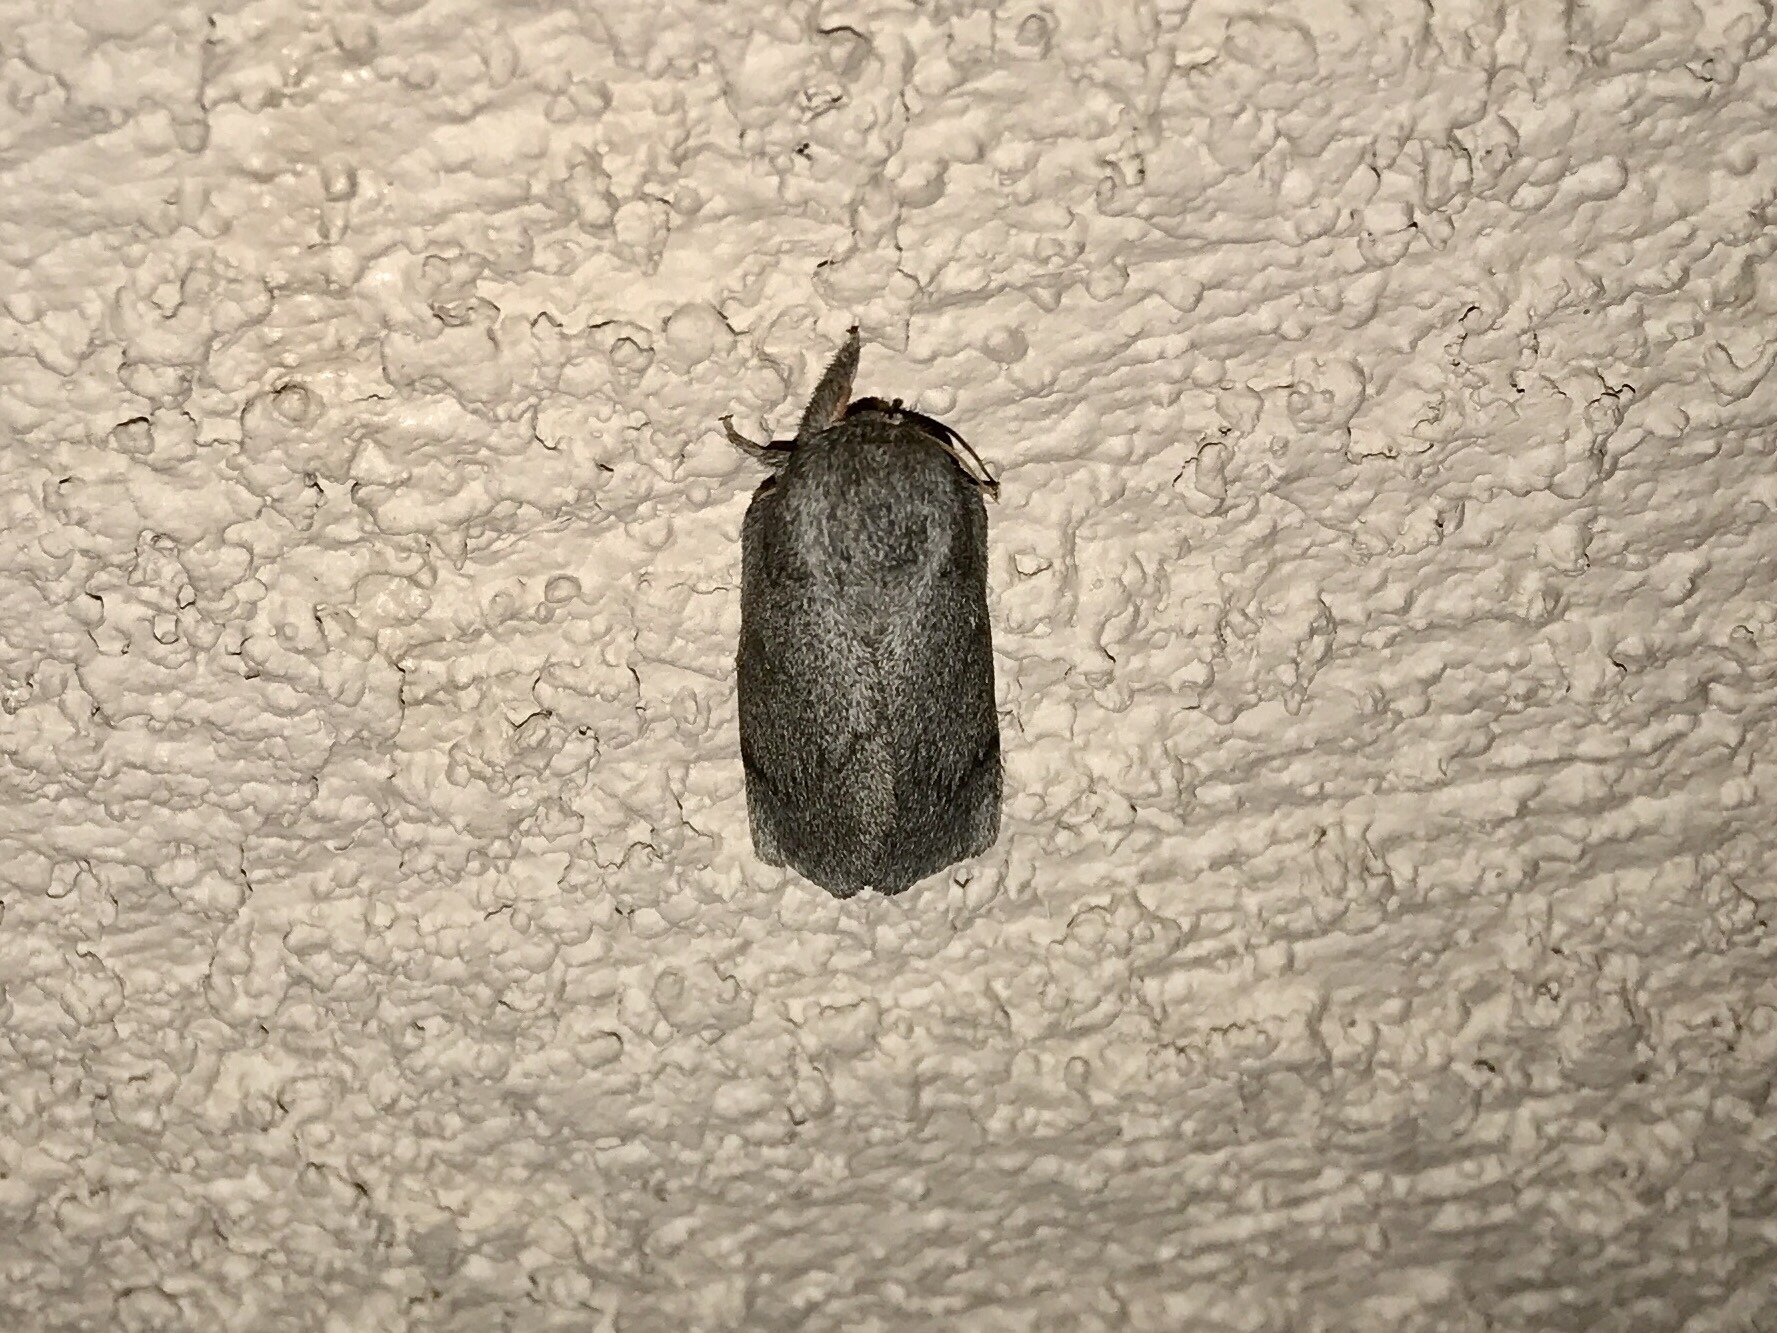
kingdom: Animalia
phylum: Arthropoda
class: Insecta
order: Lepidoptera
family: Saturniidae
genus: Syssphinx
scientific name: Syssphinx hubbardi
